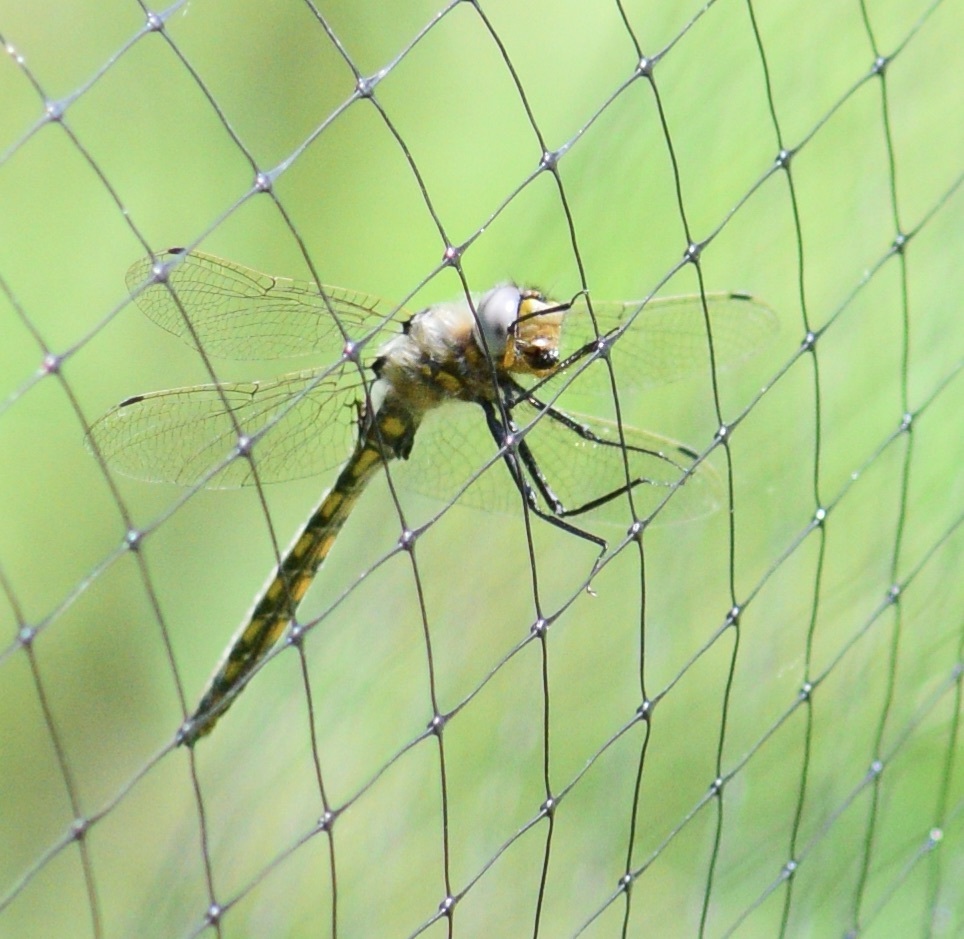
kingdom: Animalia
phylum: Arthropoda
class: Insecta
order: Odonata
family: Corduliidae
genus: Epitheca
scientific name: Epitheca canis
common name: Beaverpond baskettail
